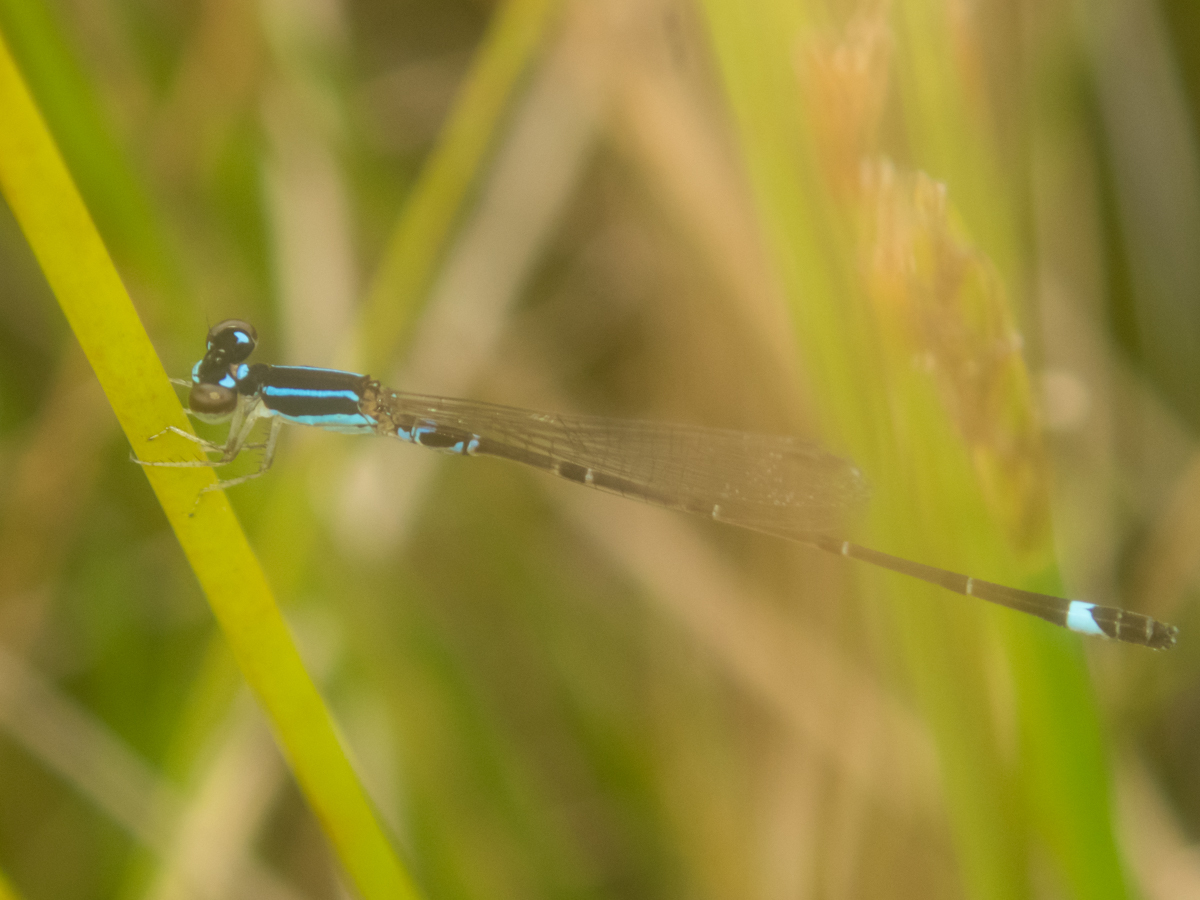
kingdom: Animalia
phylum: Arthropoda
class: Insecta
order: Odonata
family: Coenagrionidae
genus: Mortonagrion
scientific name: Mortonagrion falcatum
